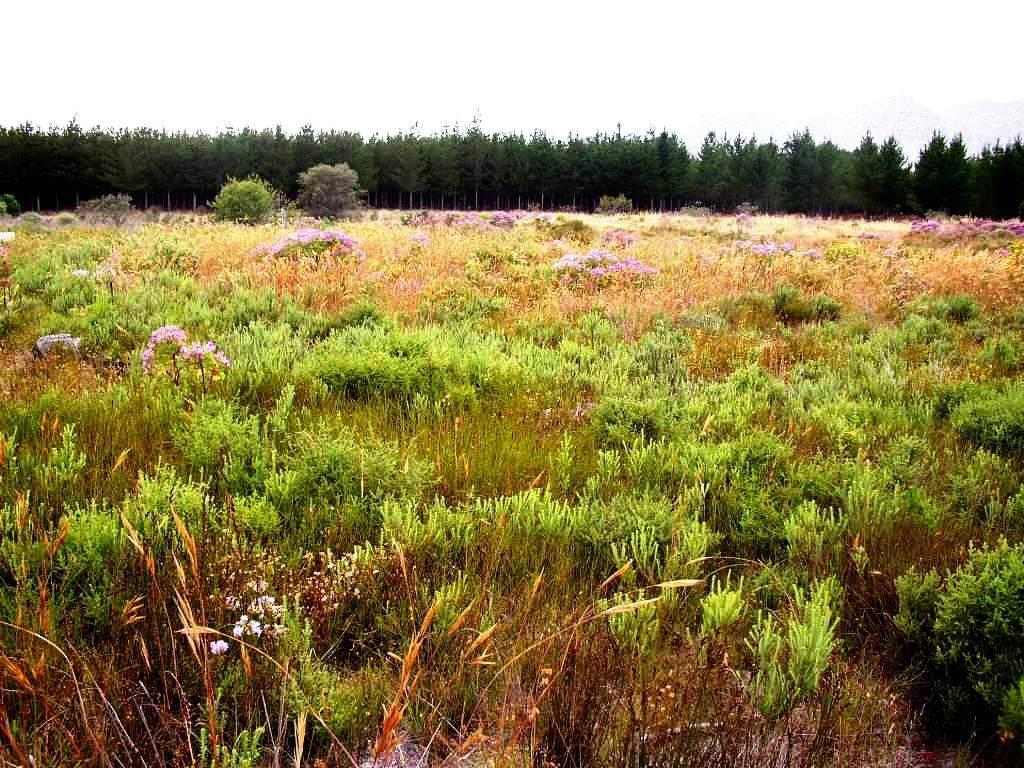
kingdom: Plantae
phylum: Tracheophyta
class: Liliopsida
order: Poales
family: Restionaceae
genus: Willdenowia
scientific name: Willdenowia sulcata
